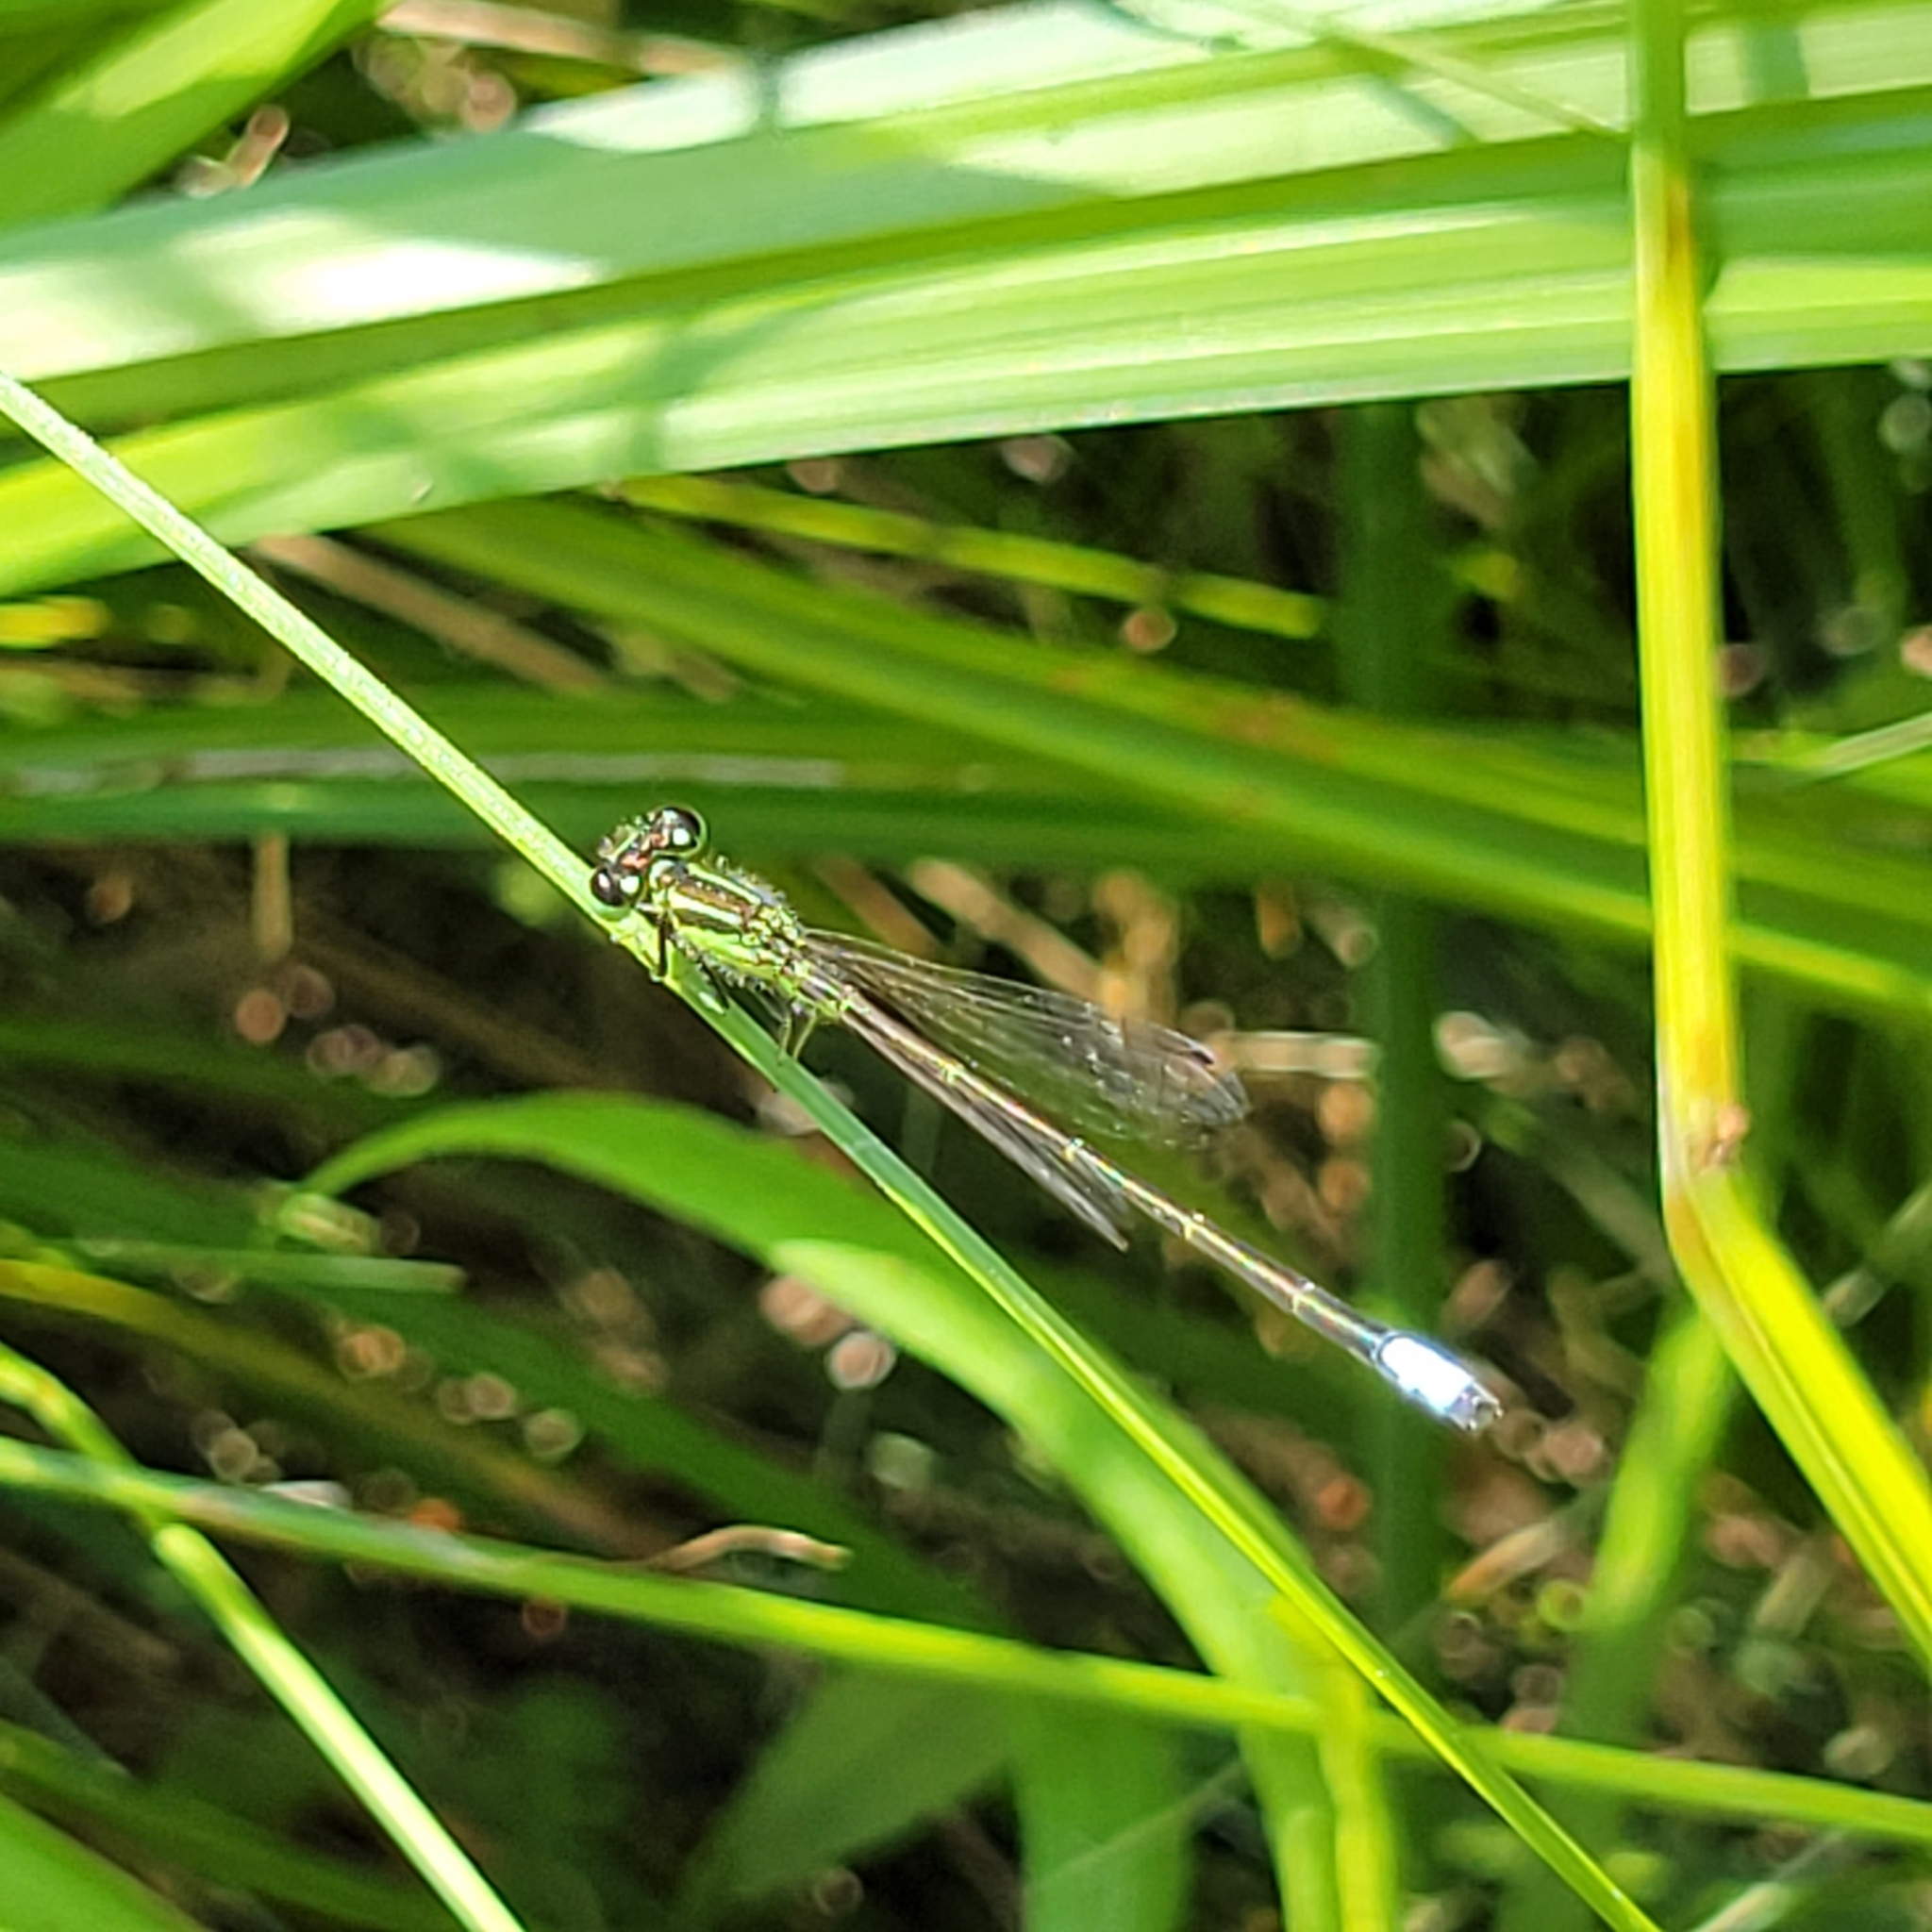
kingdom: Animalia
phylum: Arthropoda
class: Insecta
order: Odonata
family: Coenagrionidae
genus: Ischnura
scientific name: Ischnura verticalis
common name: Eastern forktail
